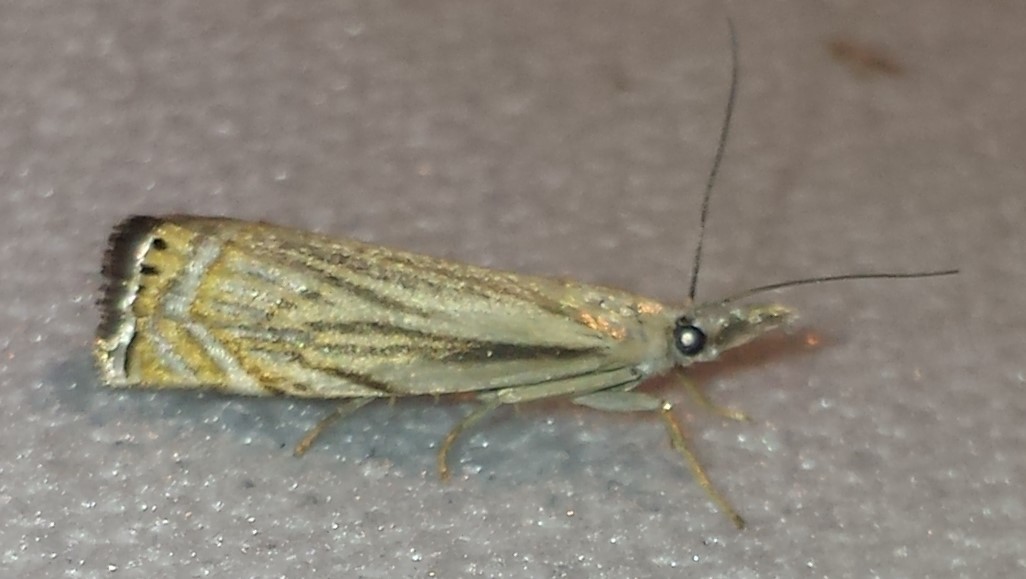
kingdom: Animalia
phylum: Arthropoda
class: Insecta
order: Lepidoptera
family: Crambidae
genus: Chrysoteuchia
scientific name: Chrysoteuchia topiarius
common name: Topiary grass-veneer
